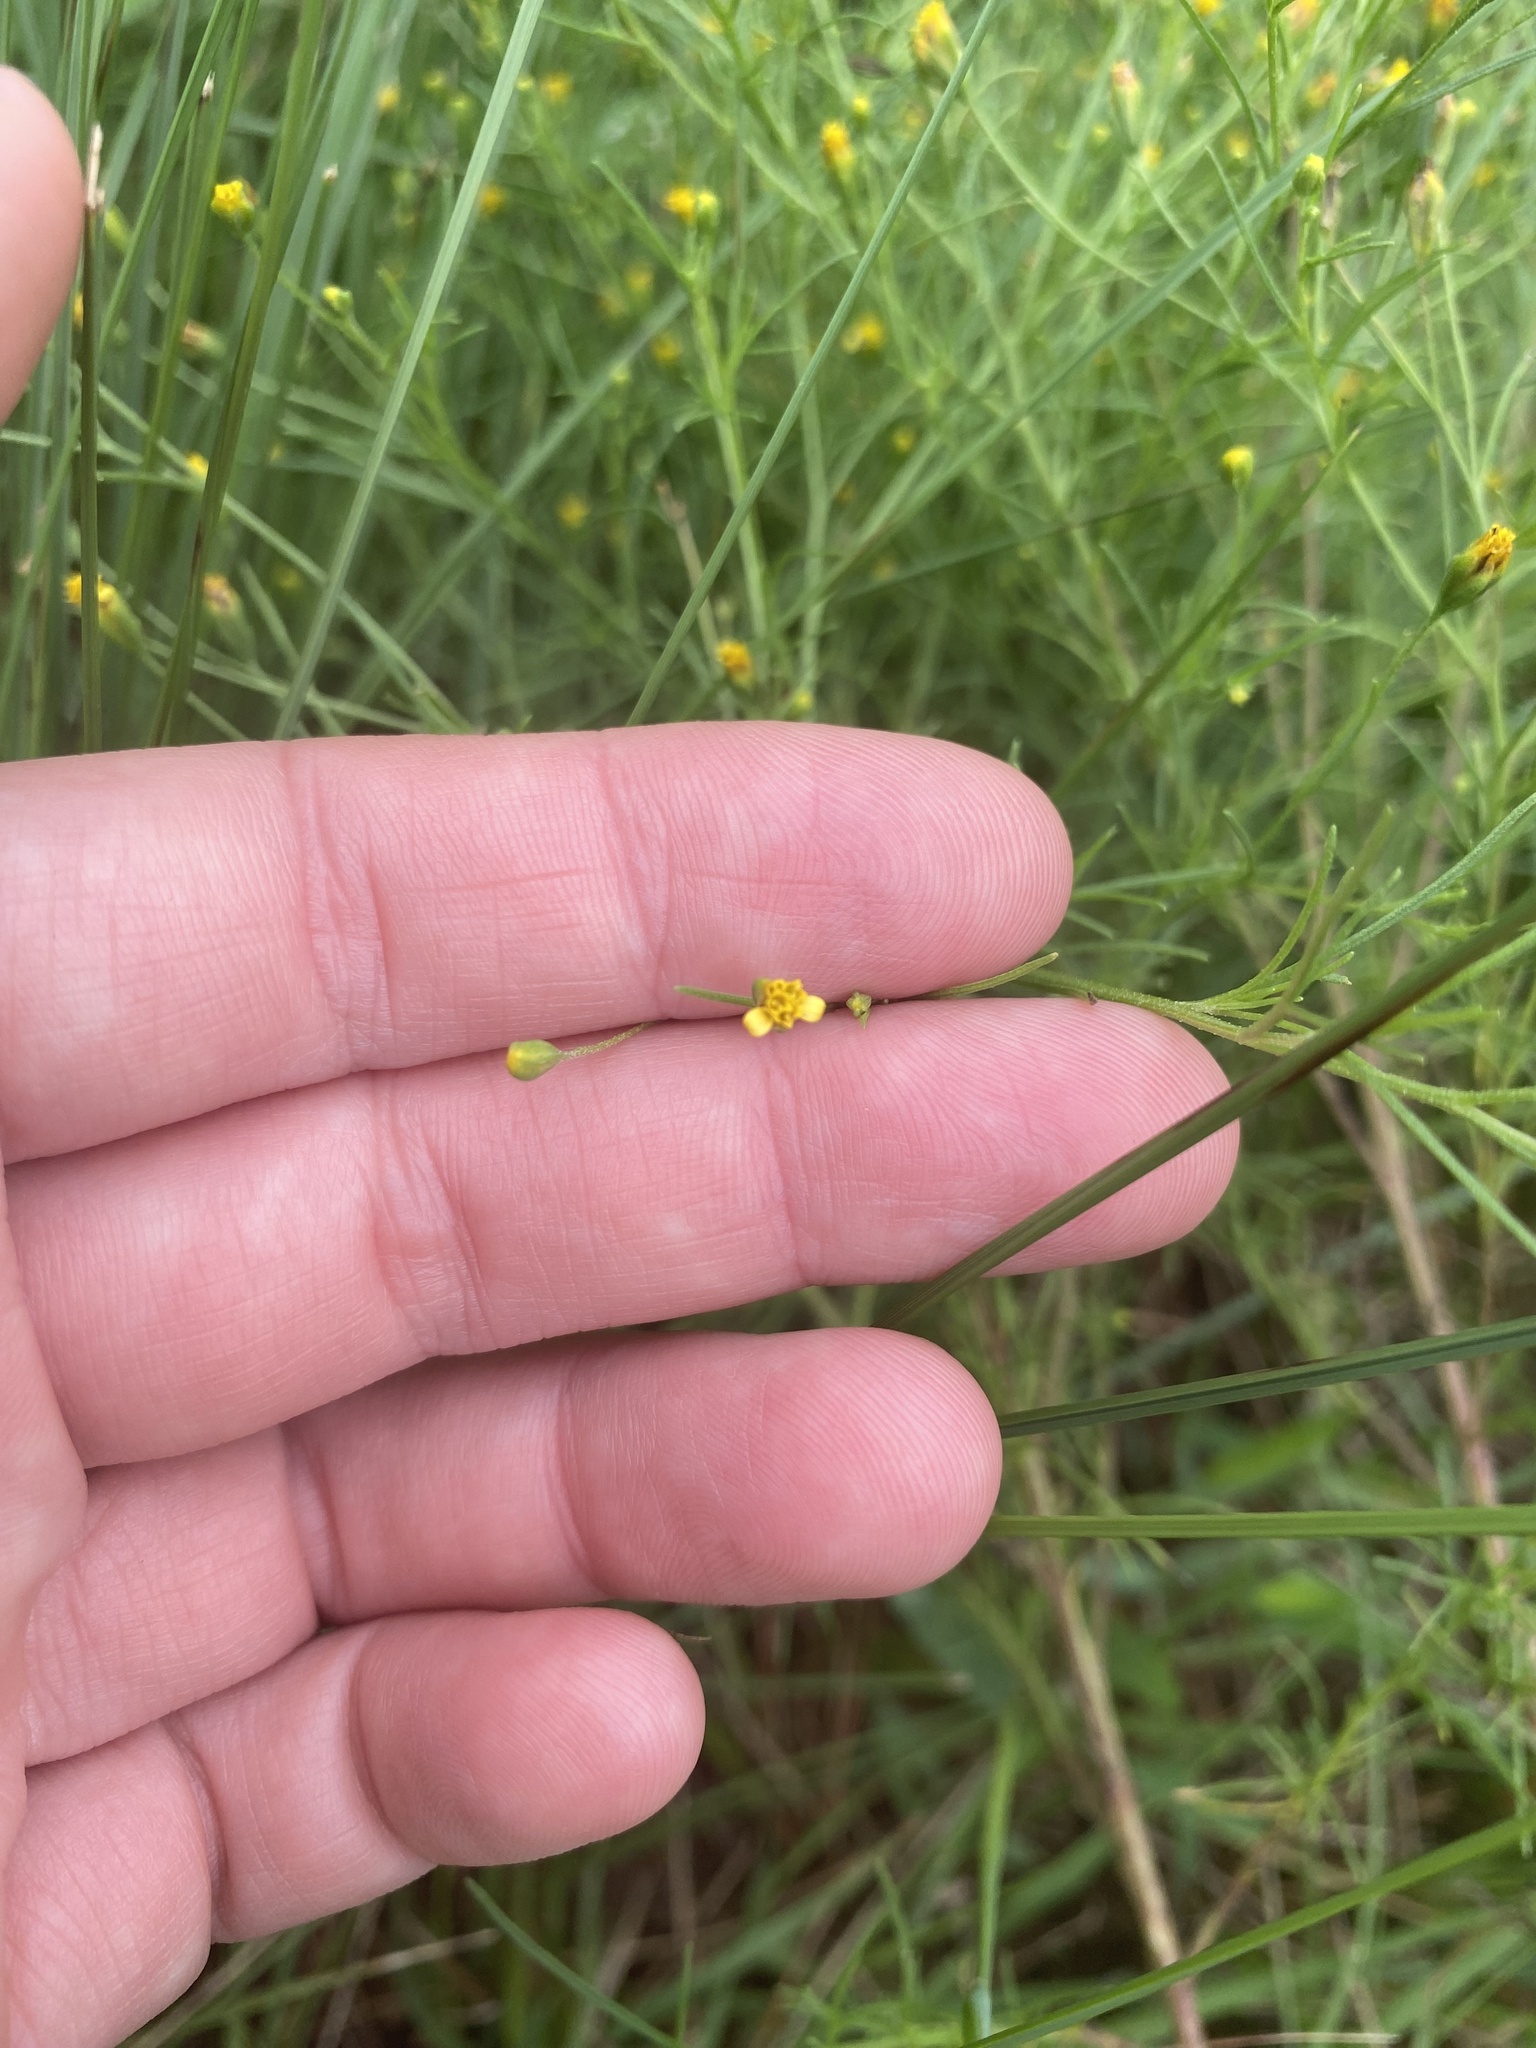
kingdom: Plantae
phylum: Tracheophyta
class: Magnoliopsida
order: Asterales
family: Asteraceae
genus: Schkuhria
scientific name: Schkuhria pinnata
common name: Dwarf marigold
